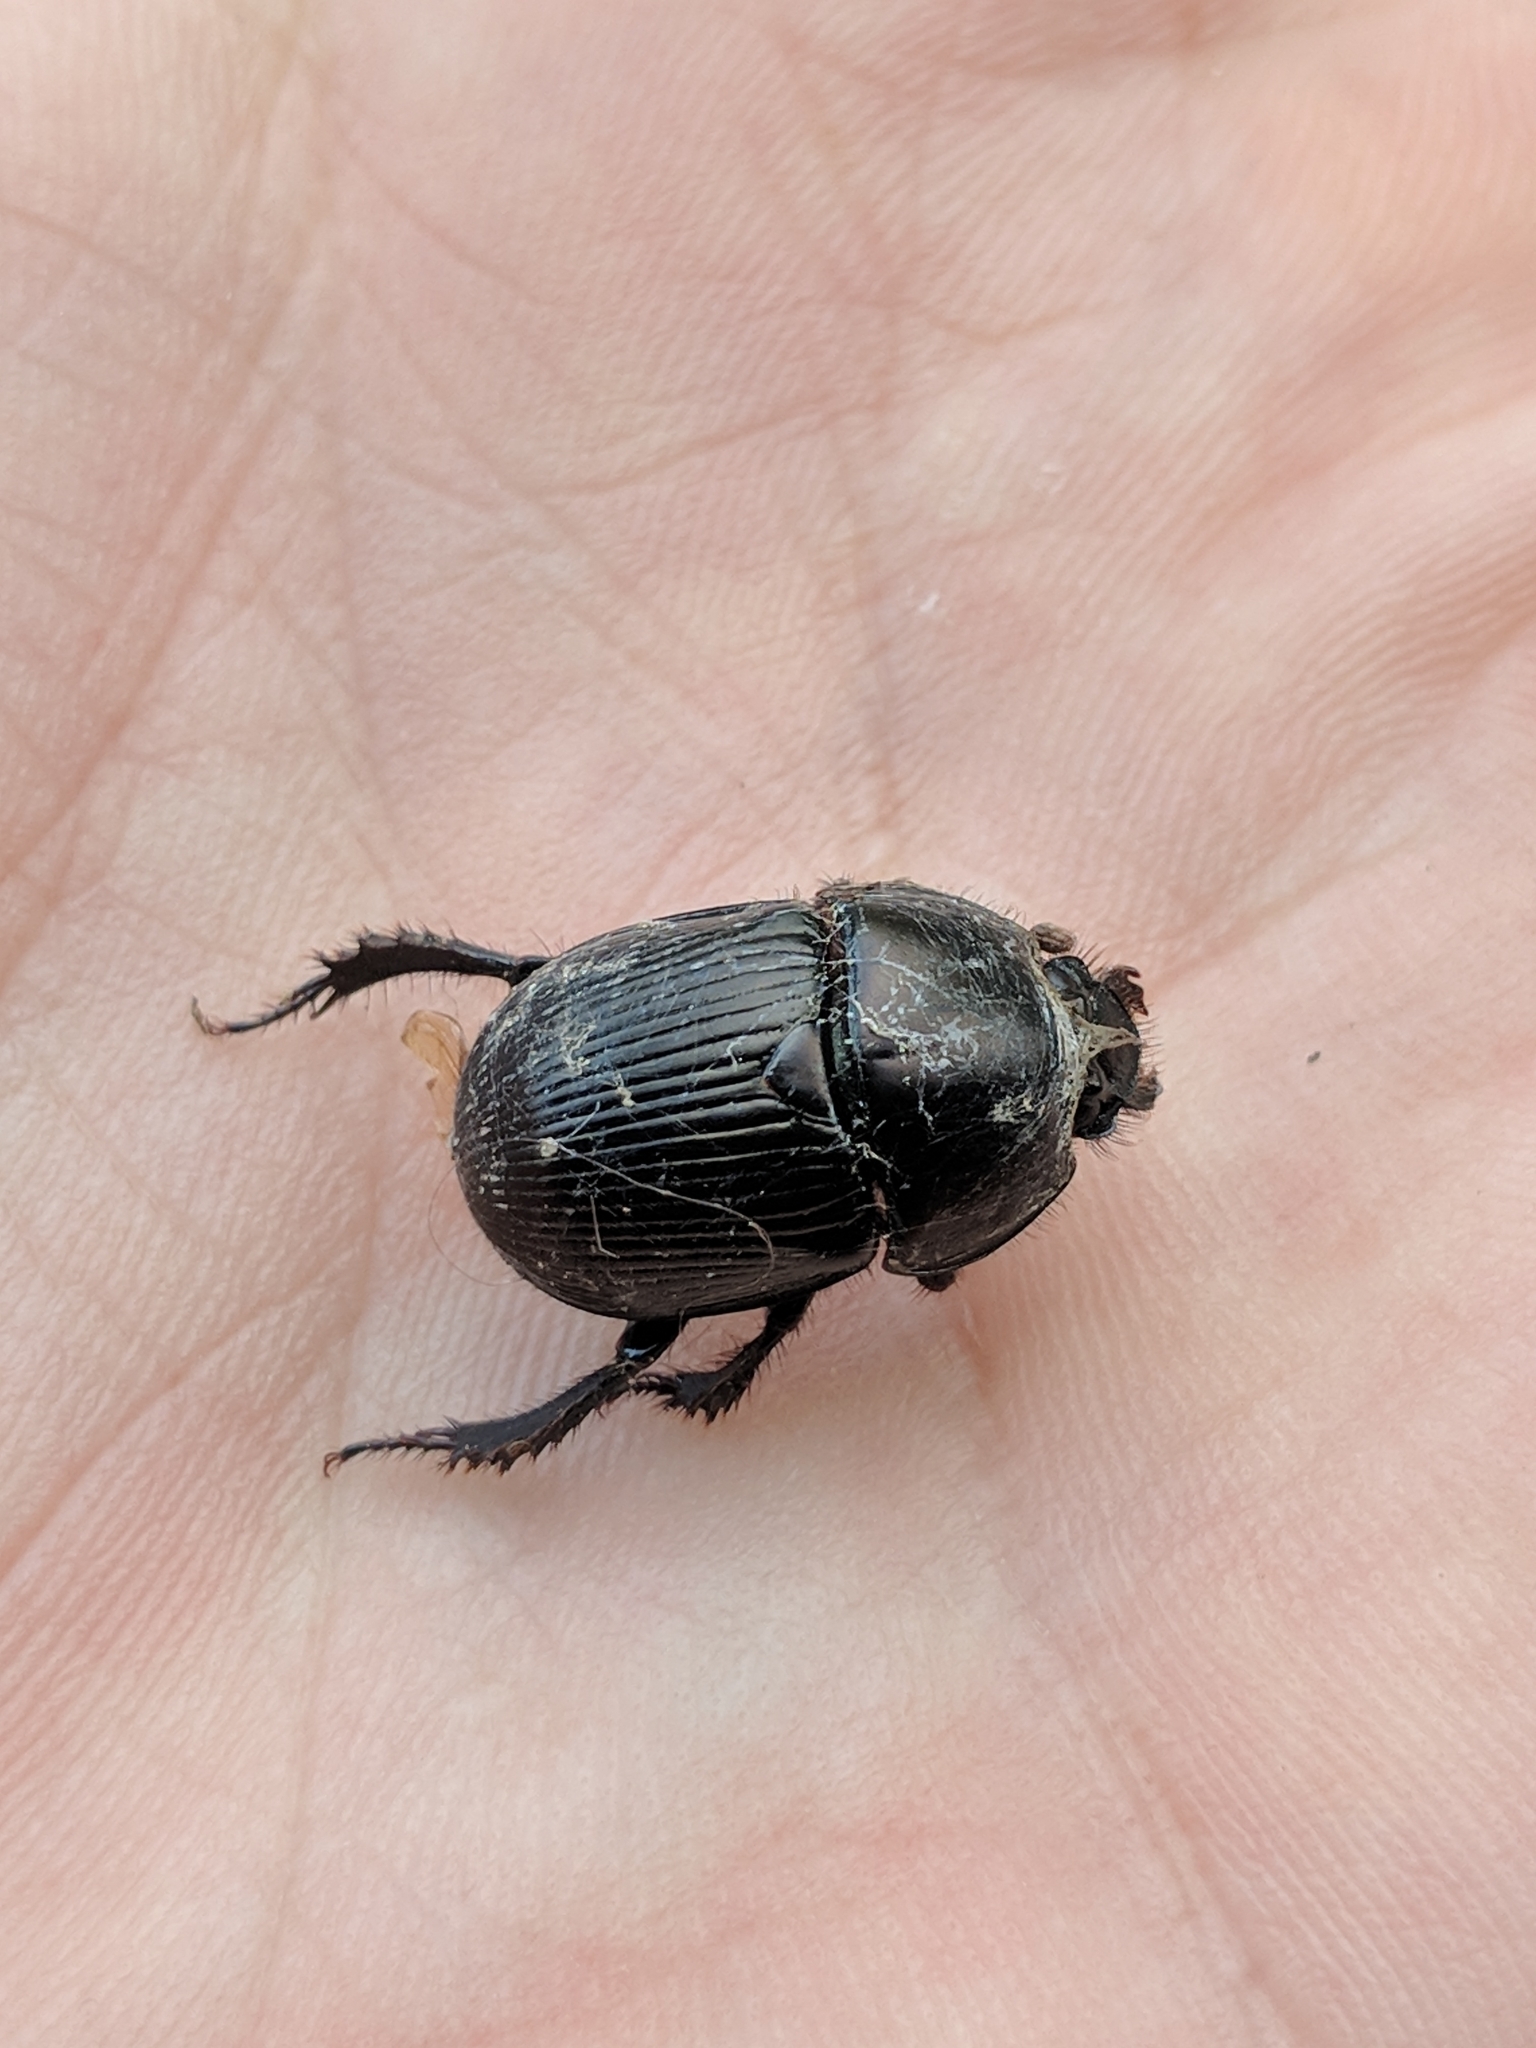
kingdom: Animalia
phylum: Arthropoda
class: Insecta
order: Coleoptera
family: Geotrupidae
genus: Cnemotrupes
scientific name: Cnemotrupes semiopacus
